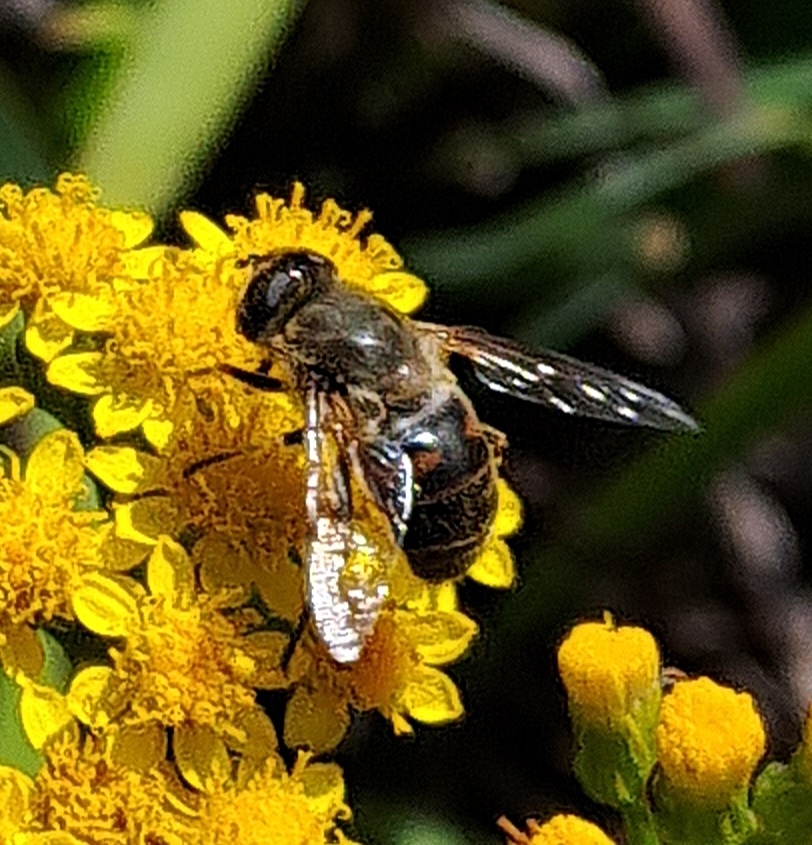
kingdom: Animalia
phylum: Arthropoda
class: Insecta
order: Diptera
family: Syrphidae
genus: Eristalis
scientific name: Eristalis tenax
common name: Drone fly
